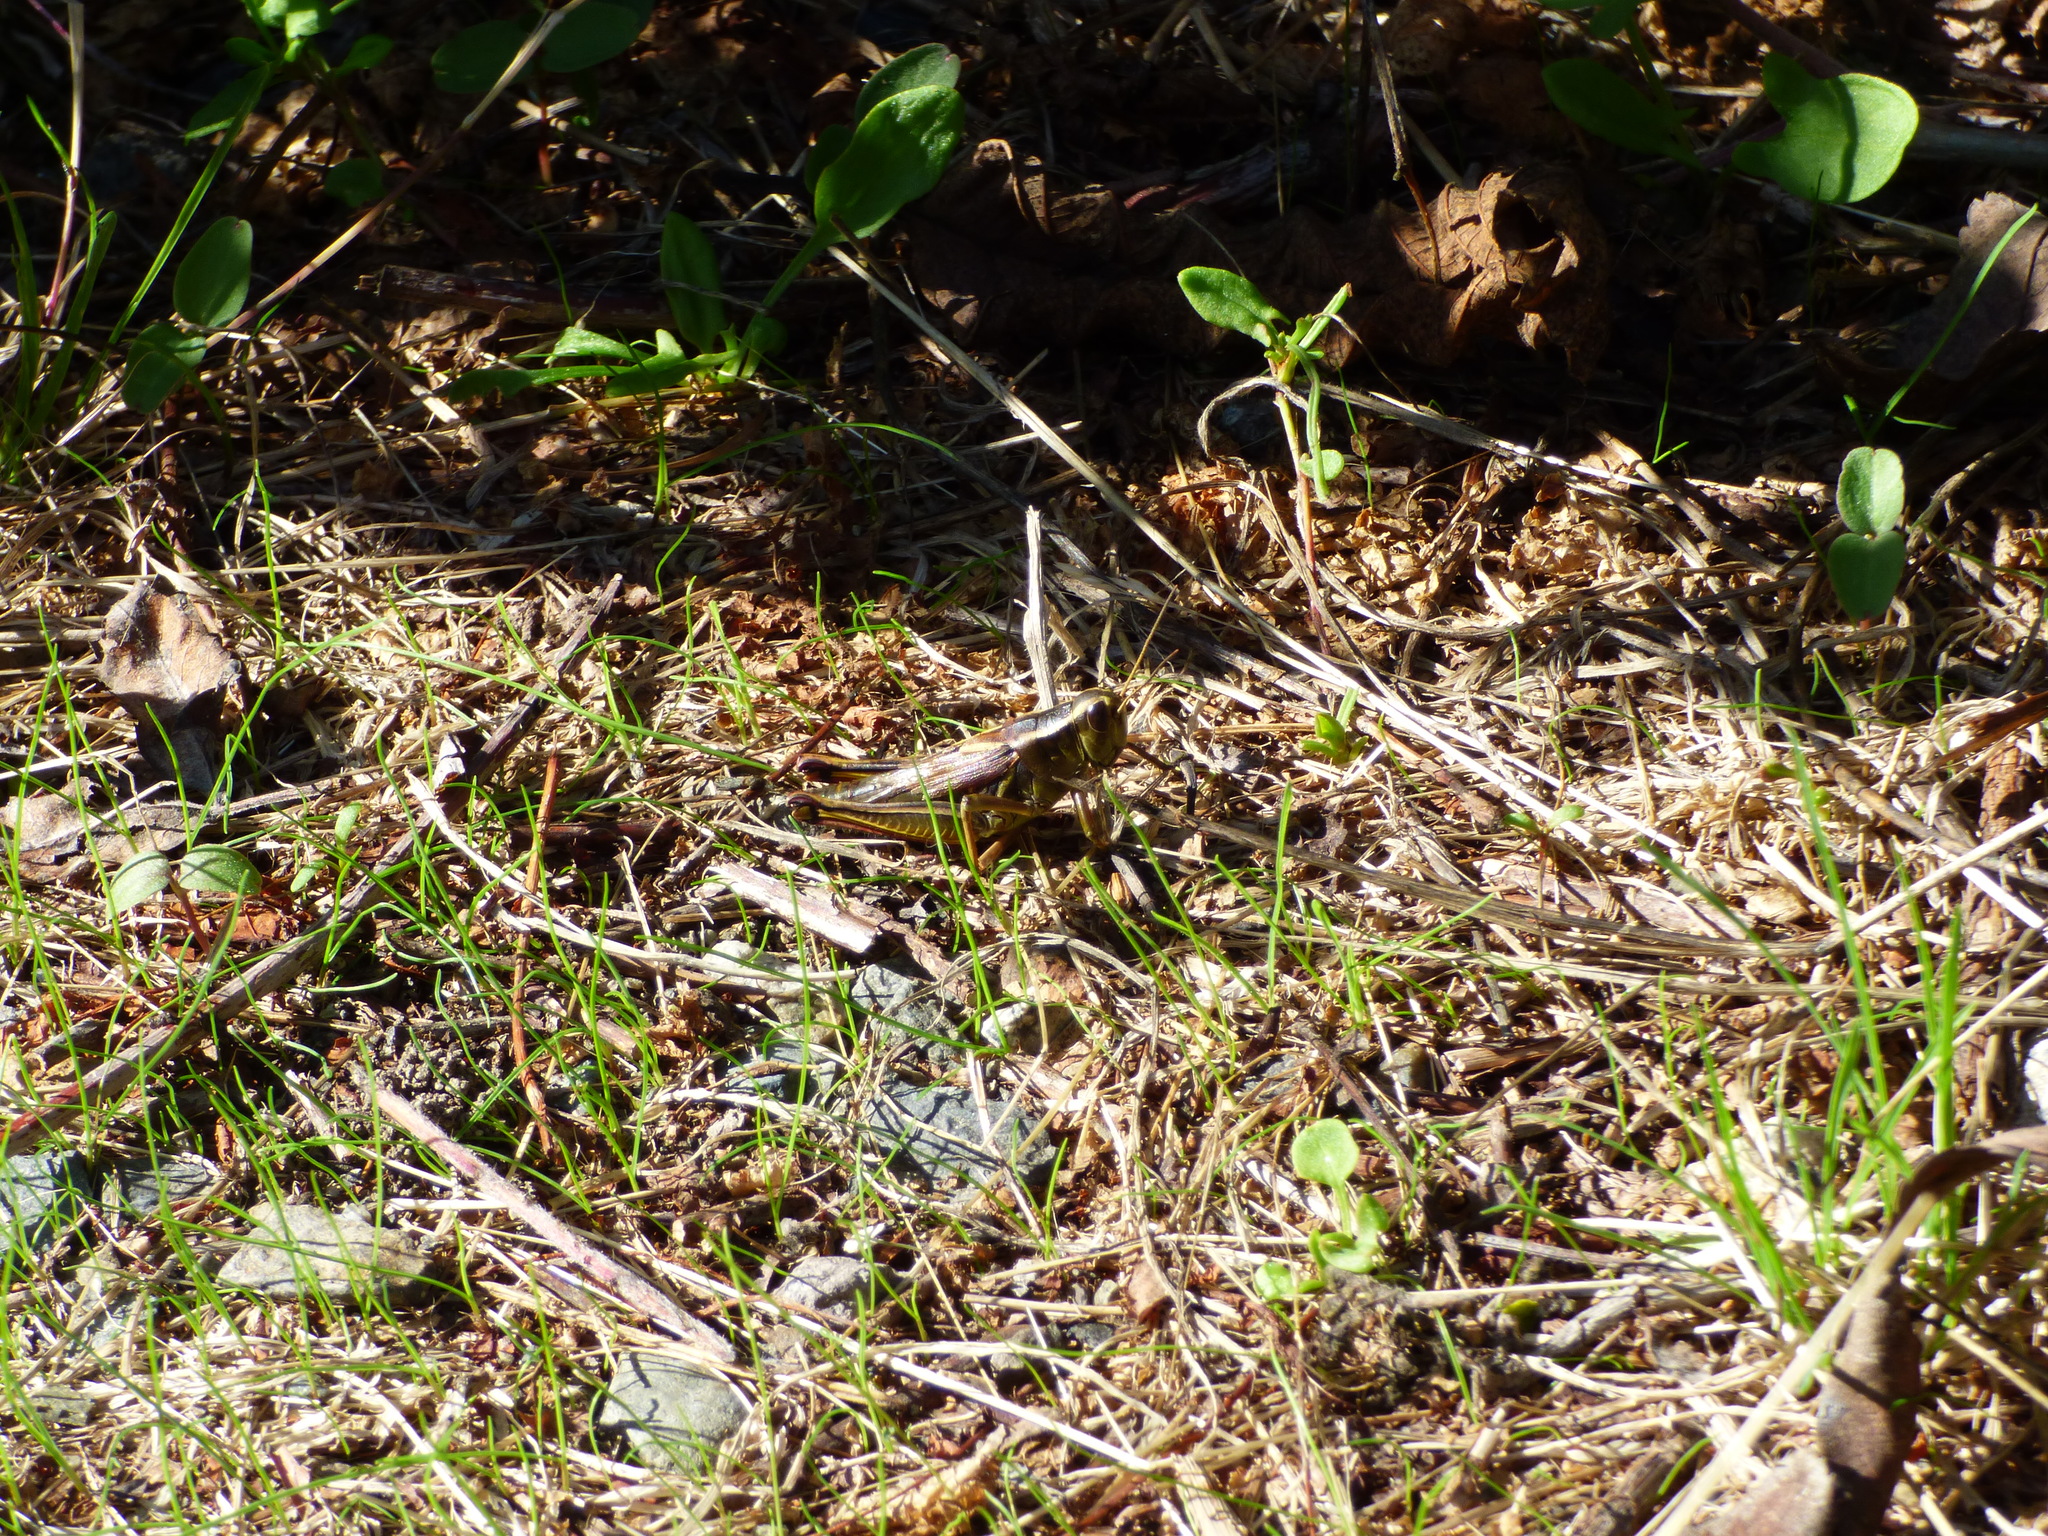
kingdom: Animalia
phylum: Arthropoda
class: Insecta
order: Orthoptera
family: Acrididae
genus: Melanoplus
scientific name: Melanoplus bivittatus
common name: Two-striped grasshopper
